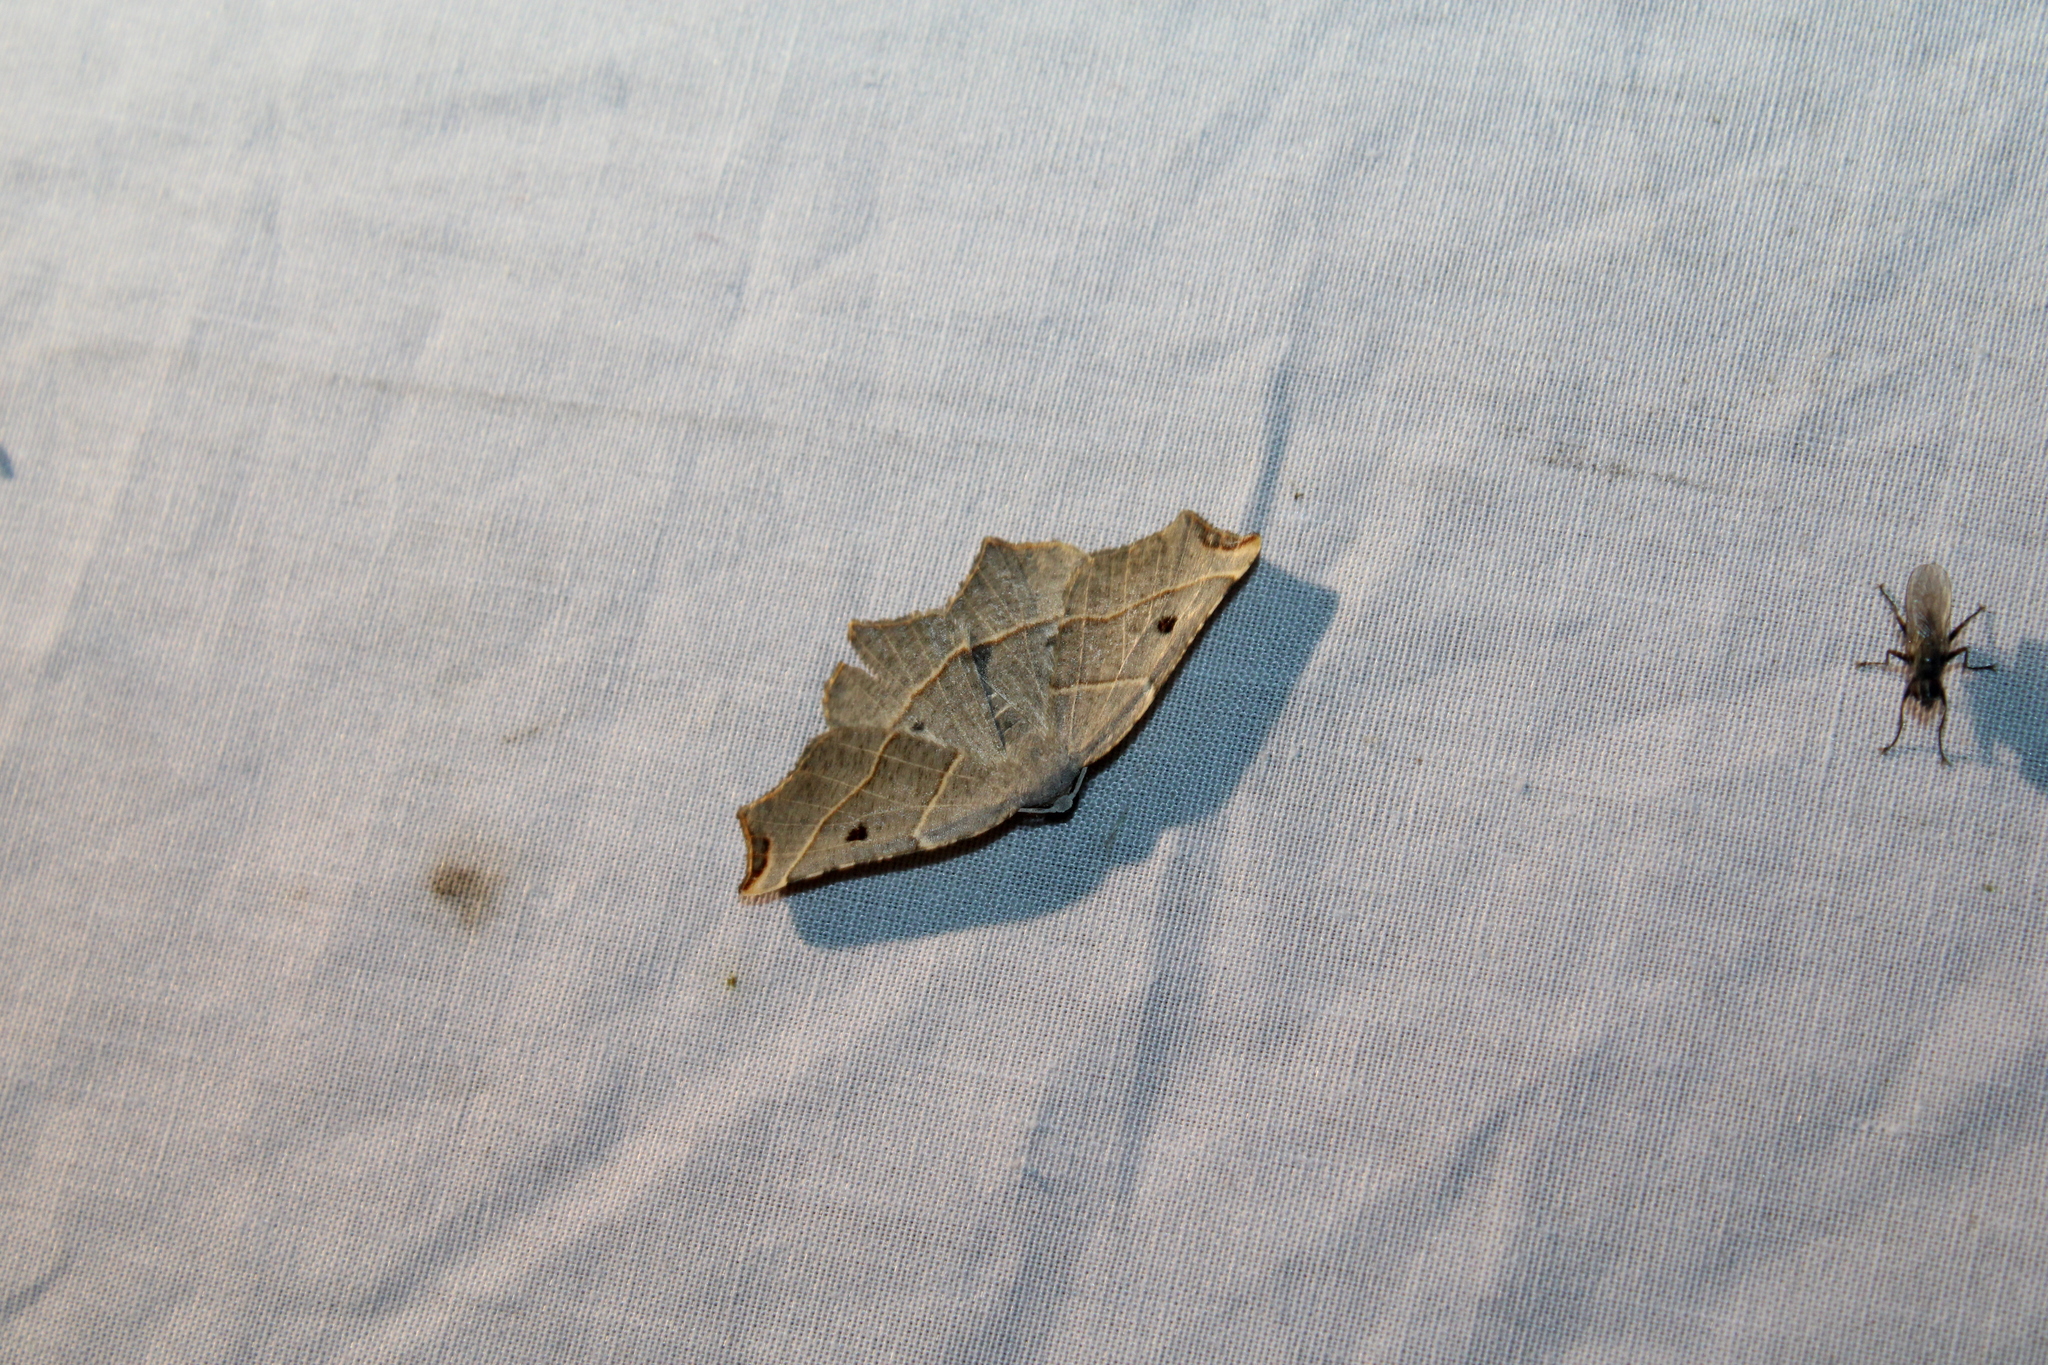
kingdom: Animalia
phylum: Arthropoda
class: Insecta
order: Lepidoptera
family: Geometridae
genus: Metanema
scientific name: Metanema inatomaria
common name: Pale metanema
